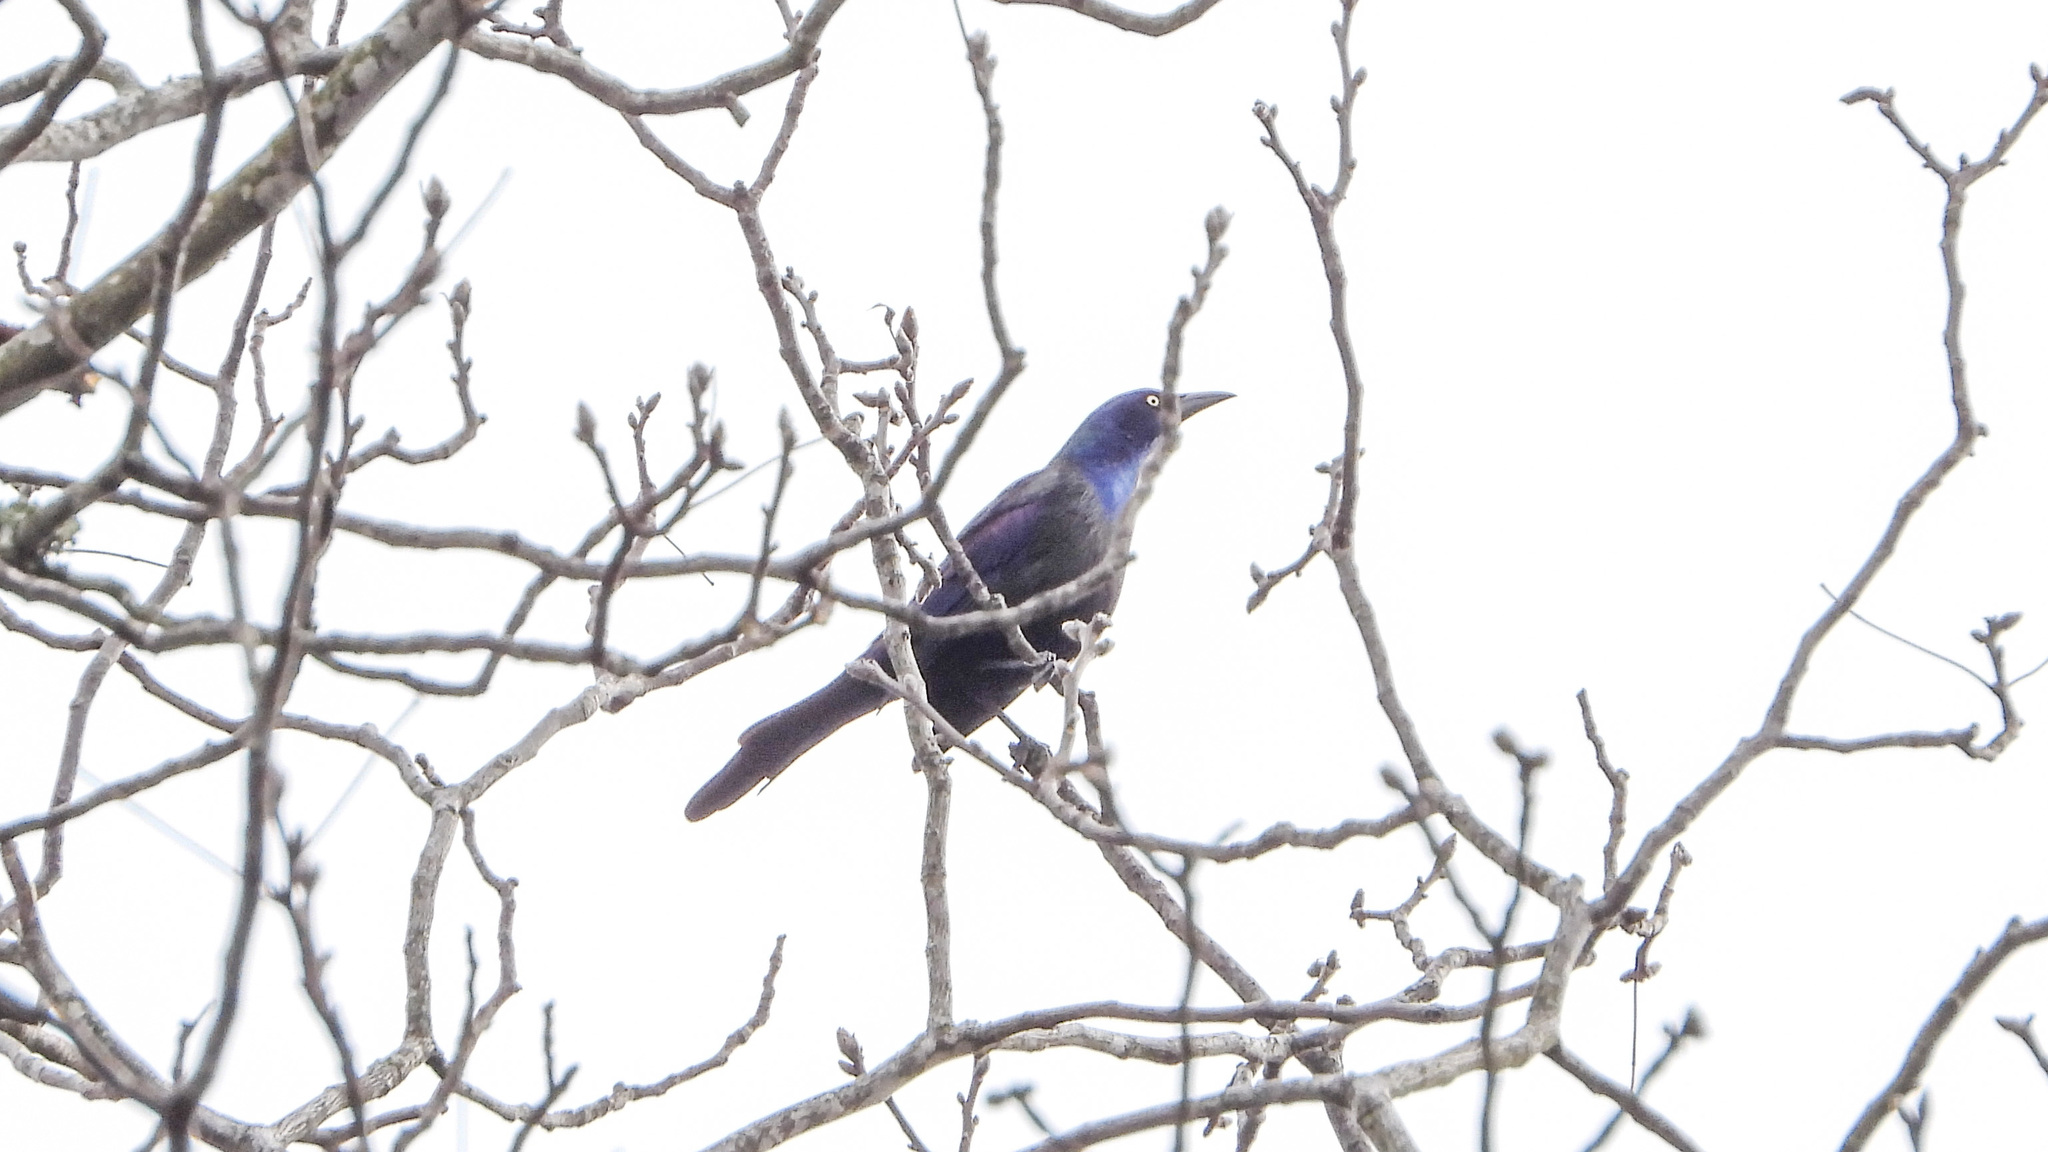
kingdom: Animalia
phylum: Chordata
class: Aves
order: Passeriformes
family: Icteridae
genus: Quiscalus
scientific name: Quiscalus quiscula
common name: Common grackle
